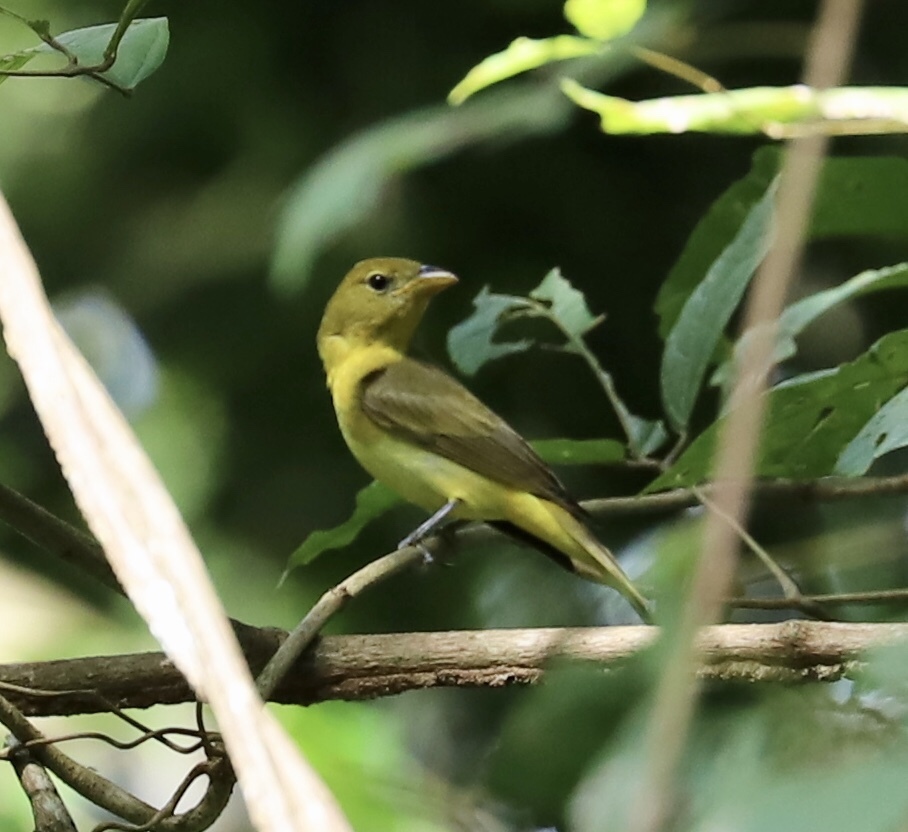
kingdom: Animalia
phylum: Chordata
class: Aves
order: Passeriformes
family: Cardinalidae
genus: Piranga
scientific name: Piranga rubra
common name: Summer tanager
